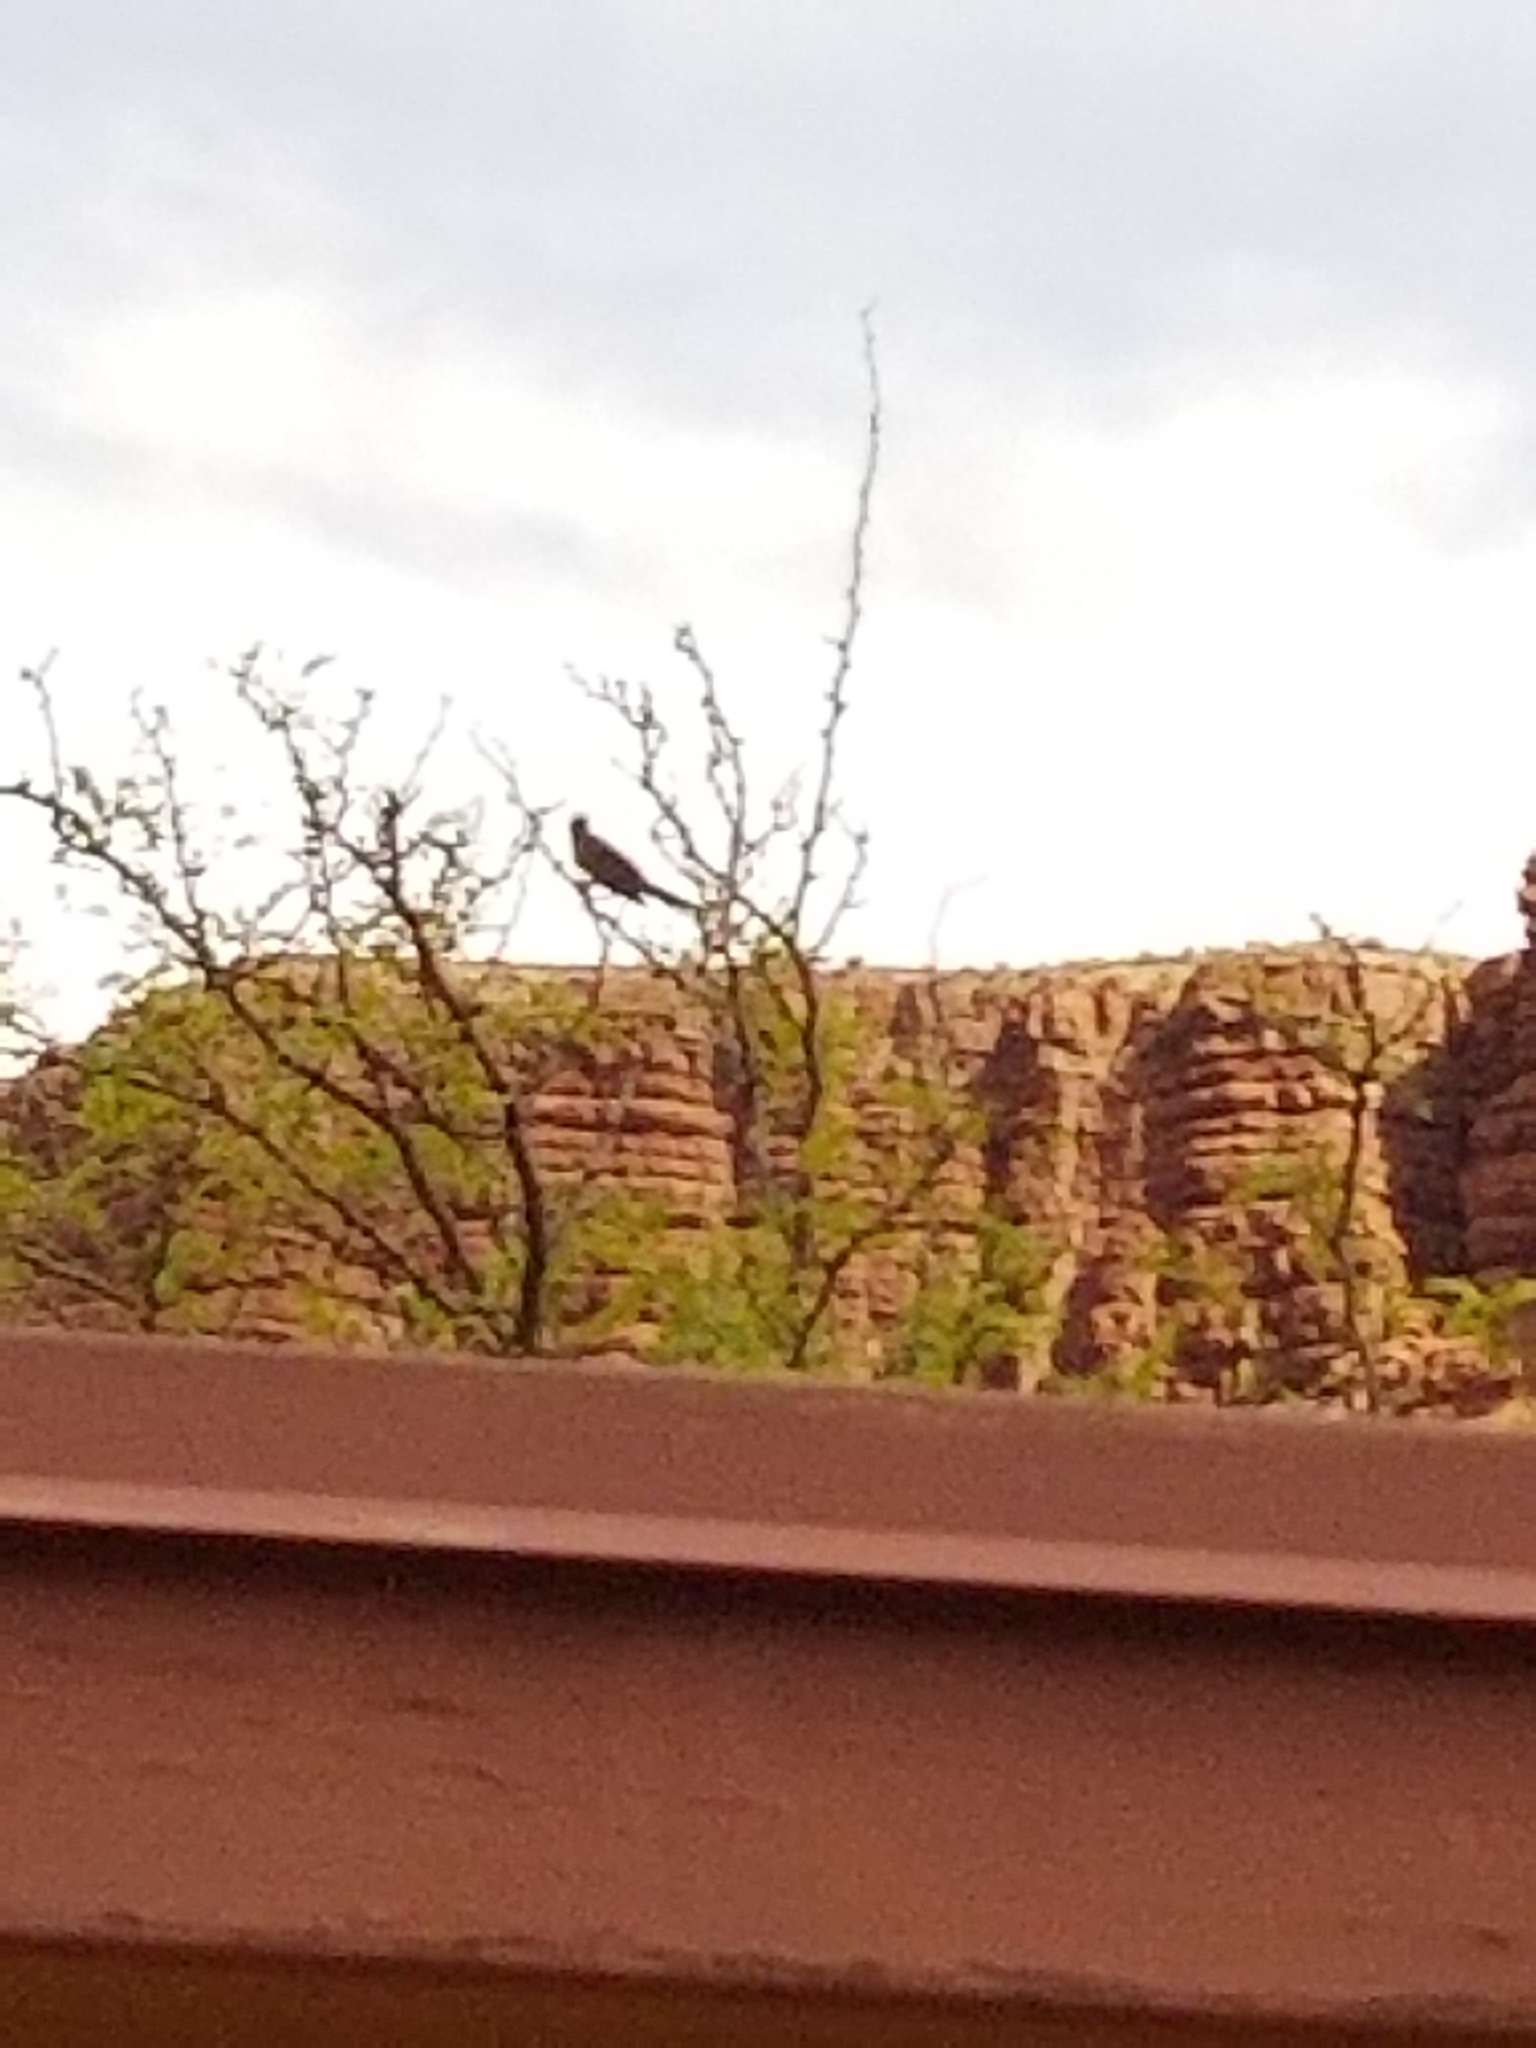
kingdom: Animalia
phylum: Chordata
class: Aves
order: Passeriformes
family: Icteridae
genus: Quiscalus
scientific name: Quiscalus mexicanus
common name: Great-tailed grackle
